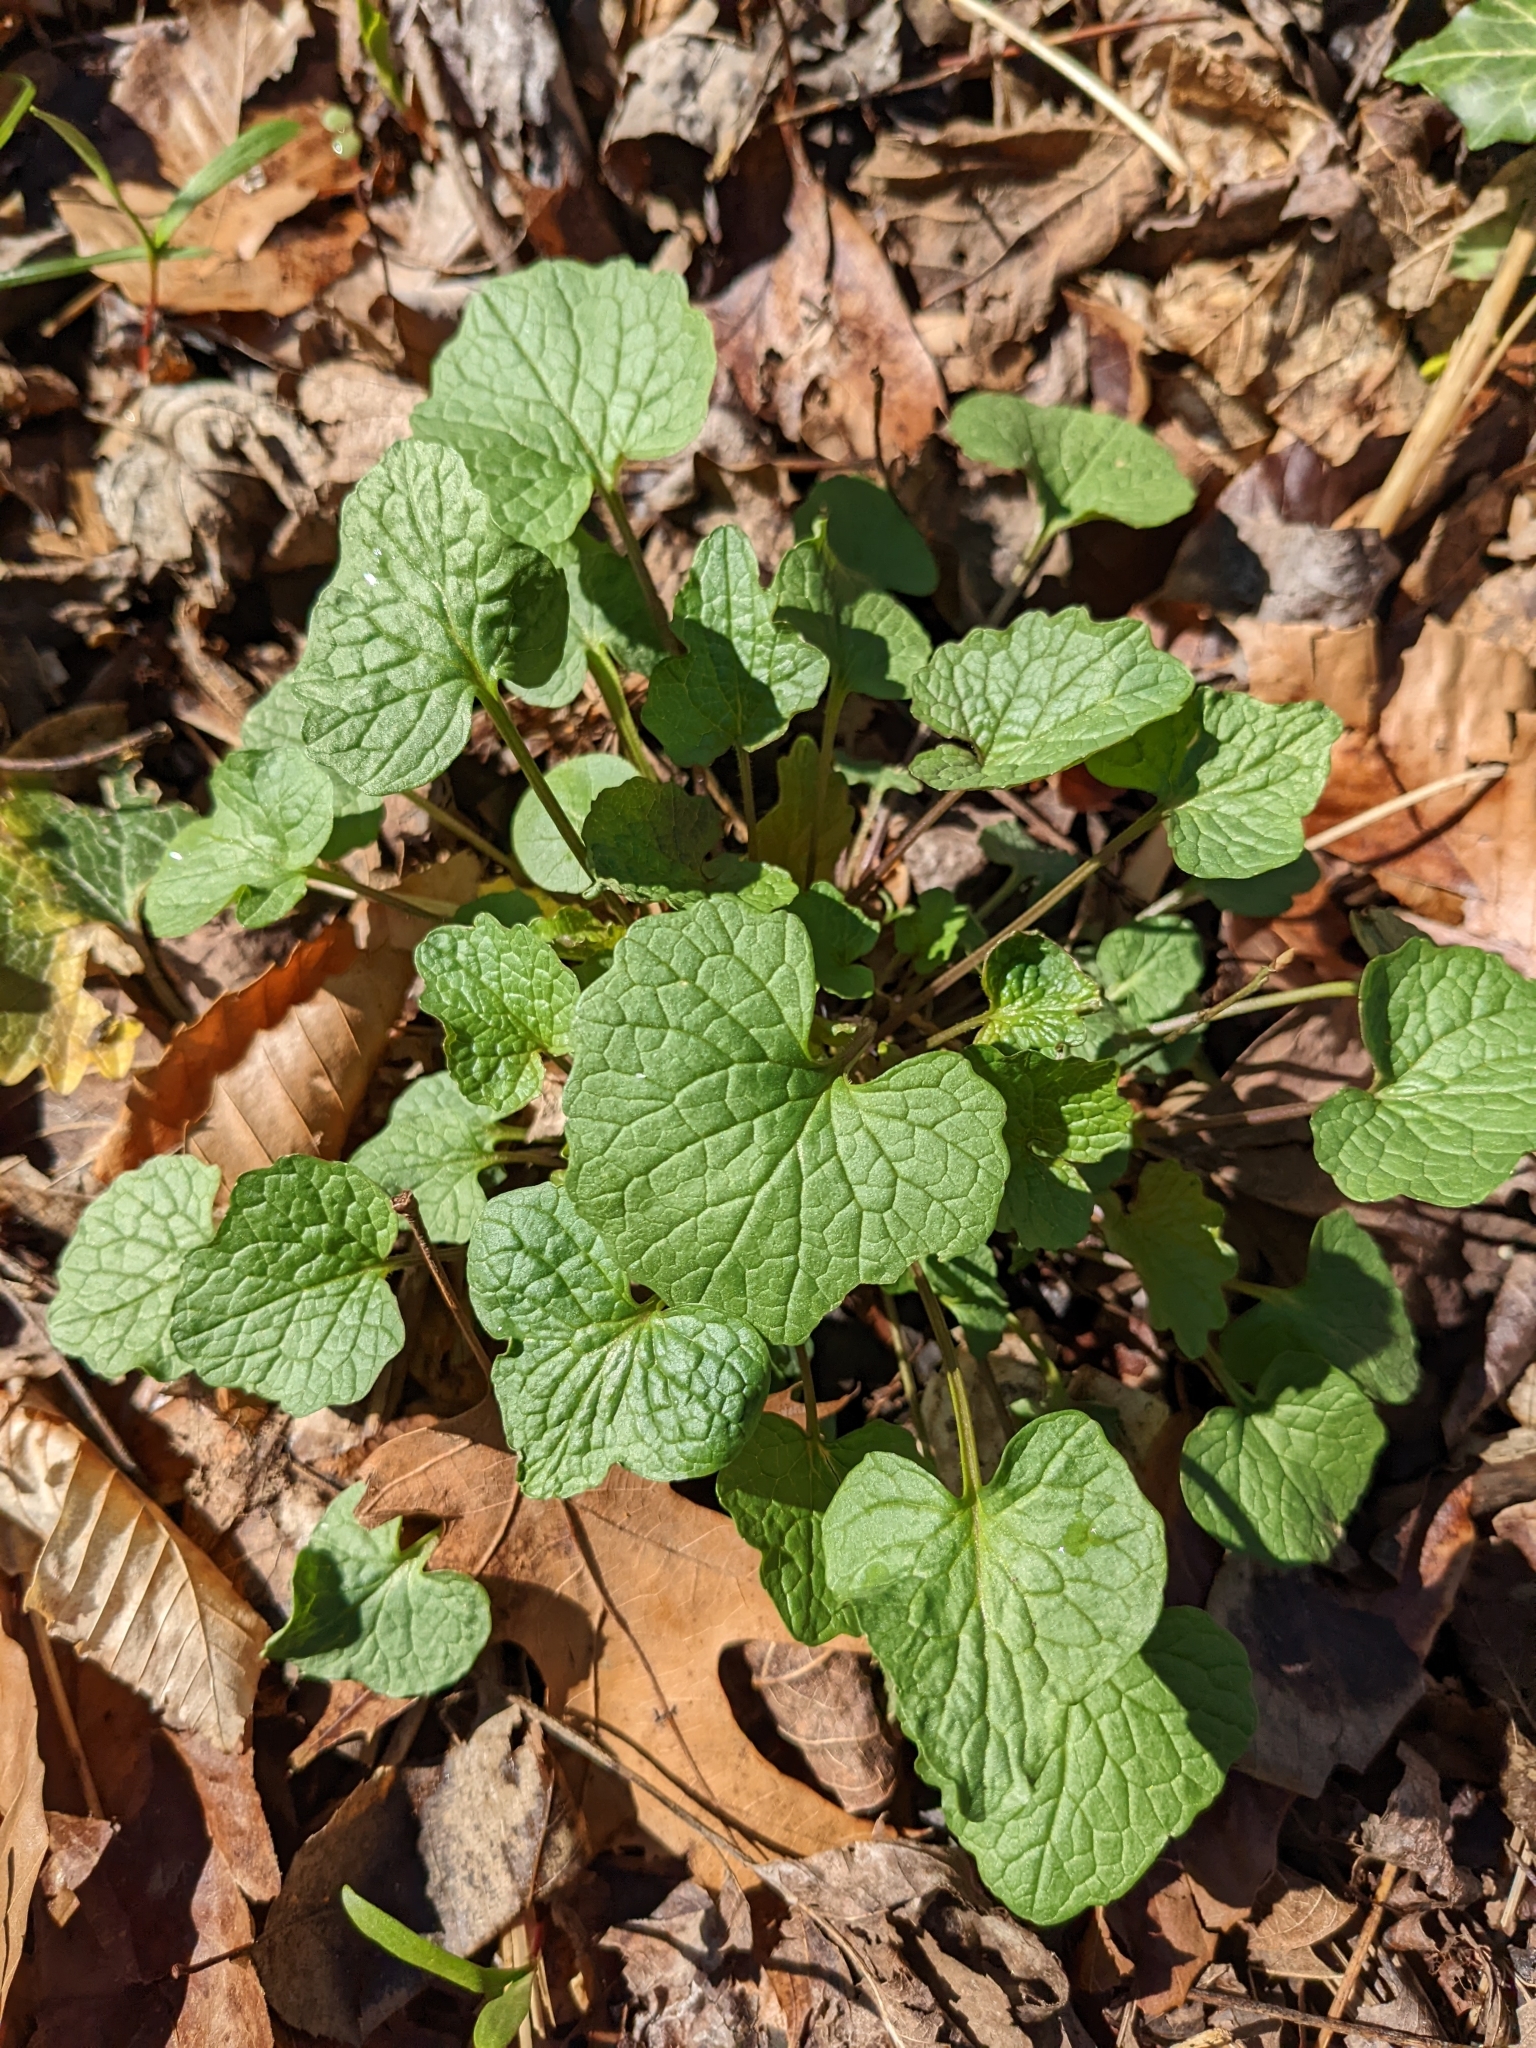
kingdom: Plantae
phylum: Tracheophyta
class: Magnoliopsida
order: Brassicales
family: Brassicaceae
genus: Alliaria
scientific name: Alliaria petiolata
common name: Garlic mustard
